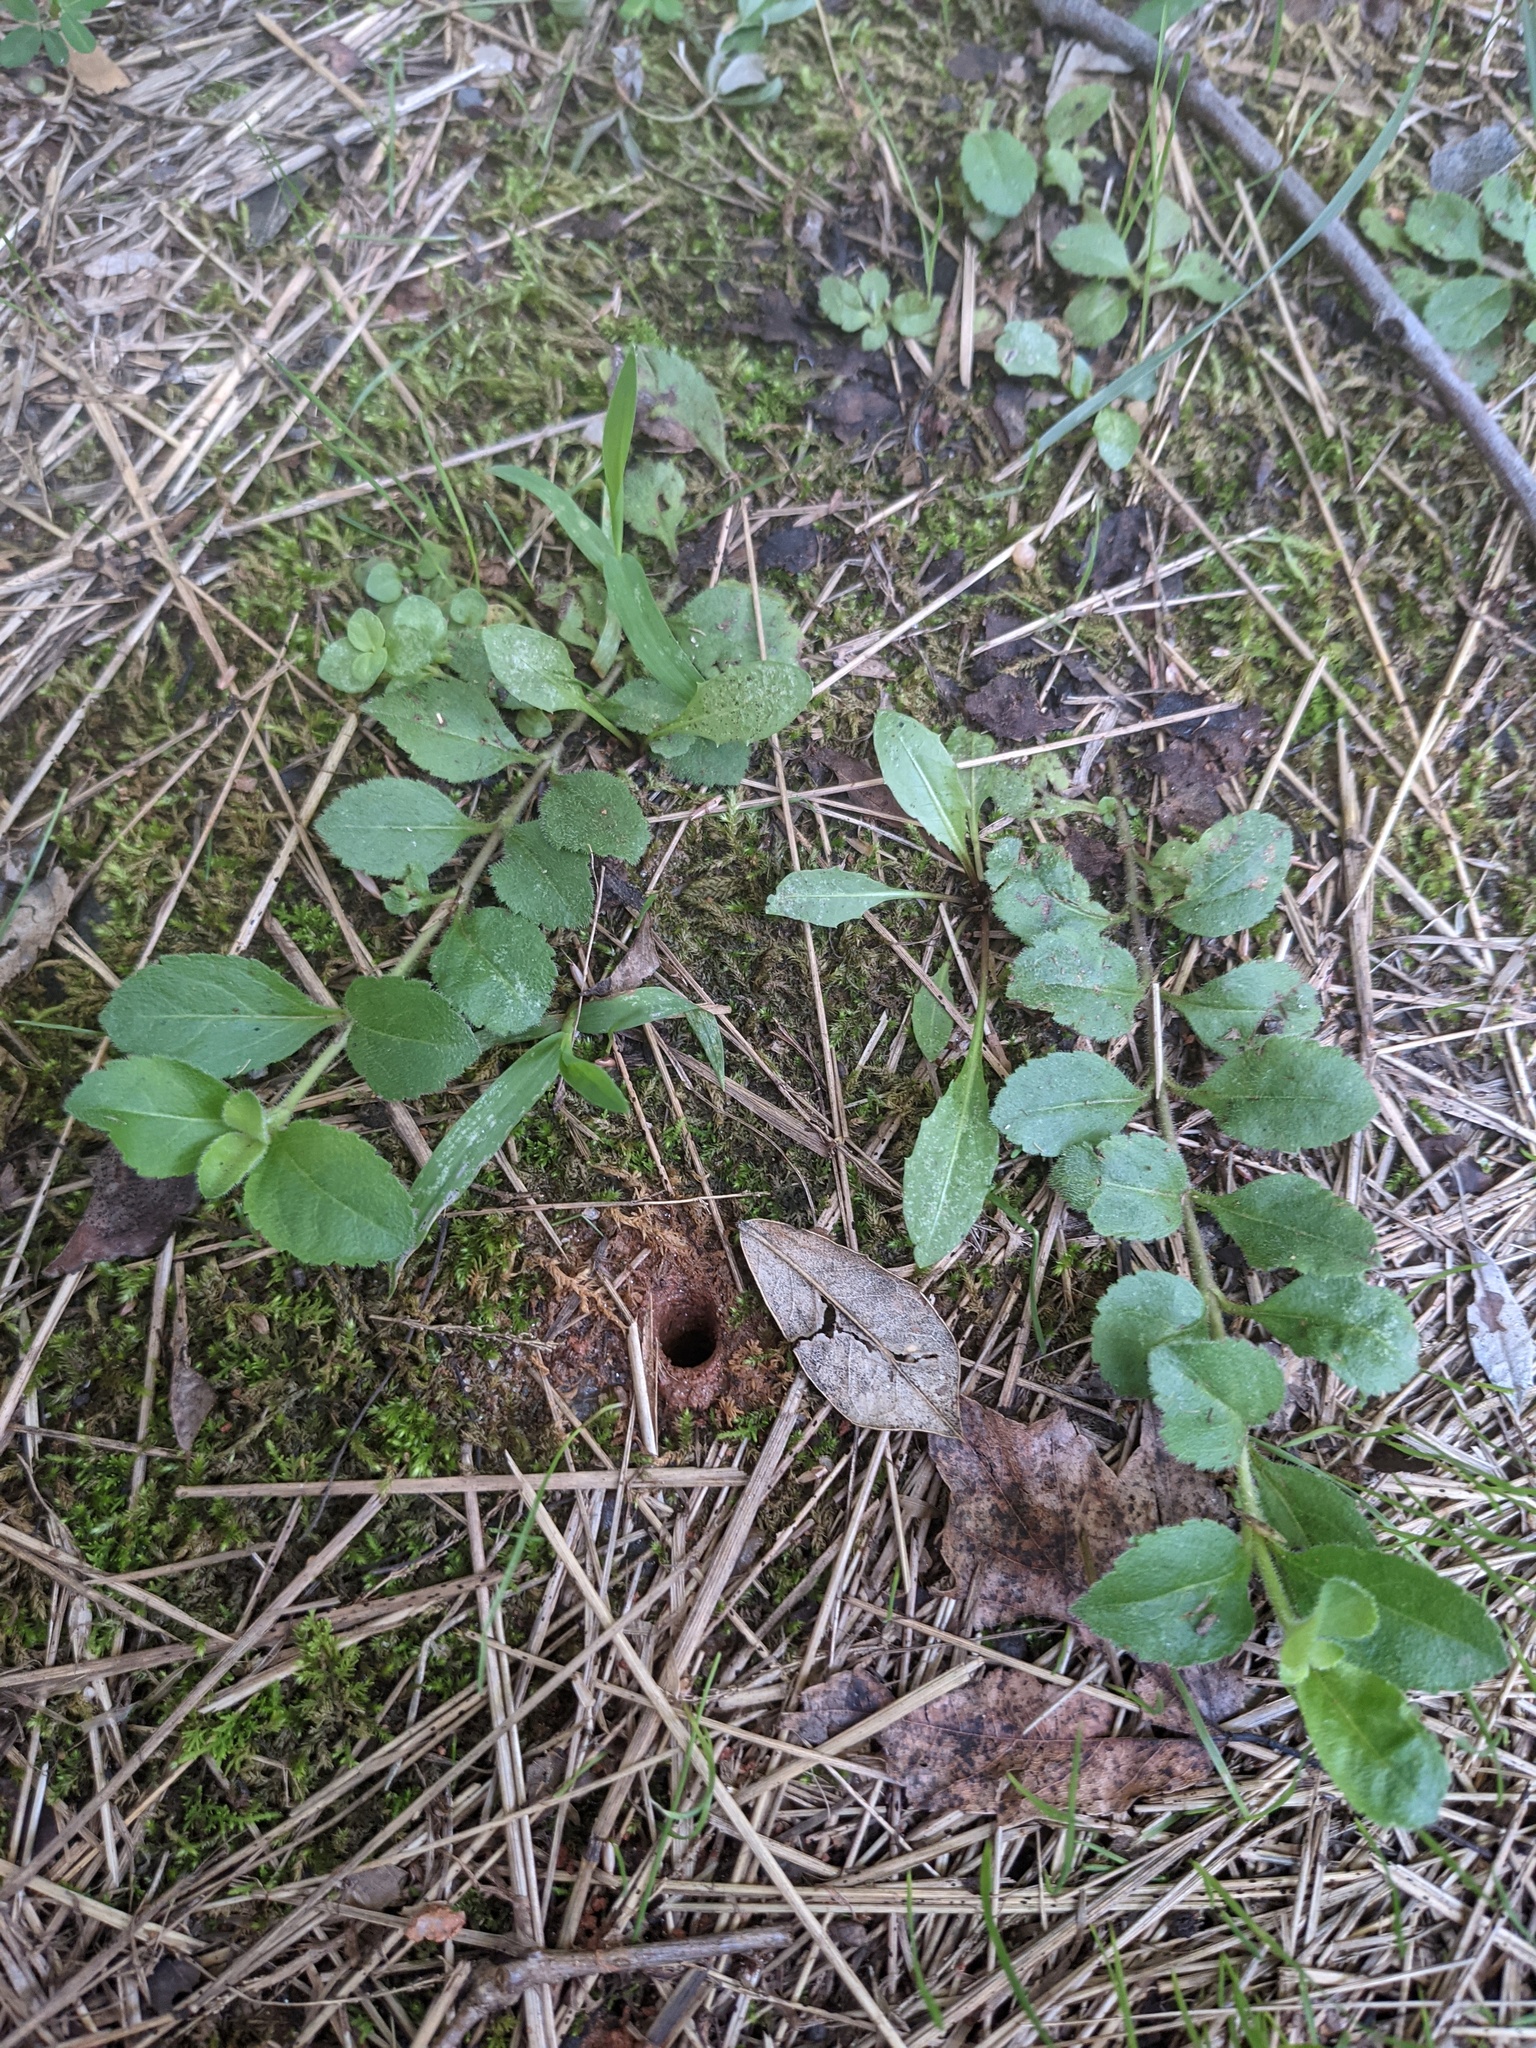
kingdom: Plantae
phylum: Tracheophyta
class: Magnoliopsida
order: Lamiales
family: Plantaginaceae
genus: Veronica
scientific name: Veronica officinalis
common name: Common speedwell
